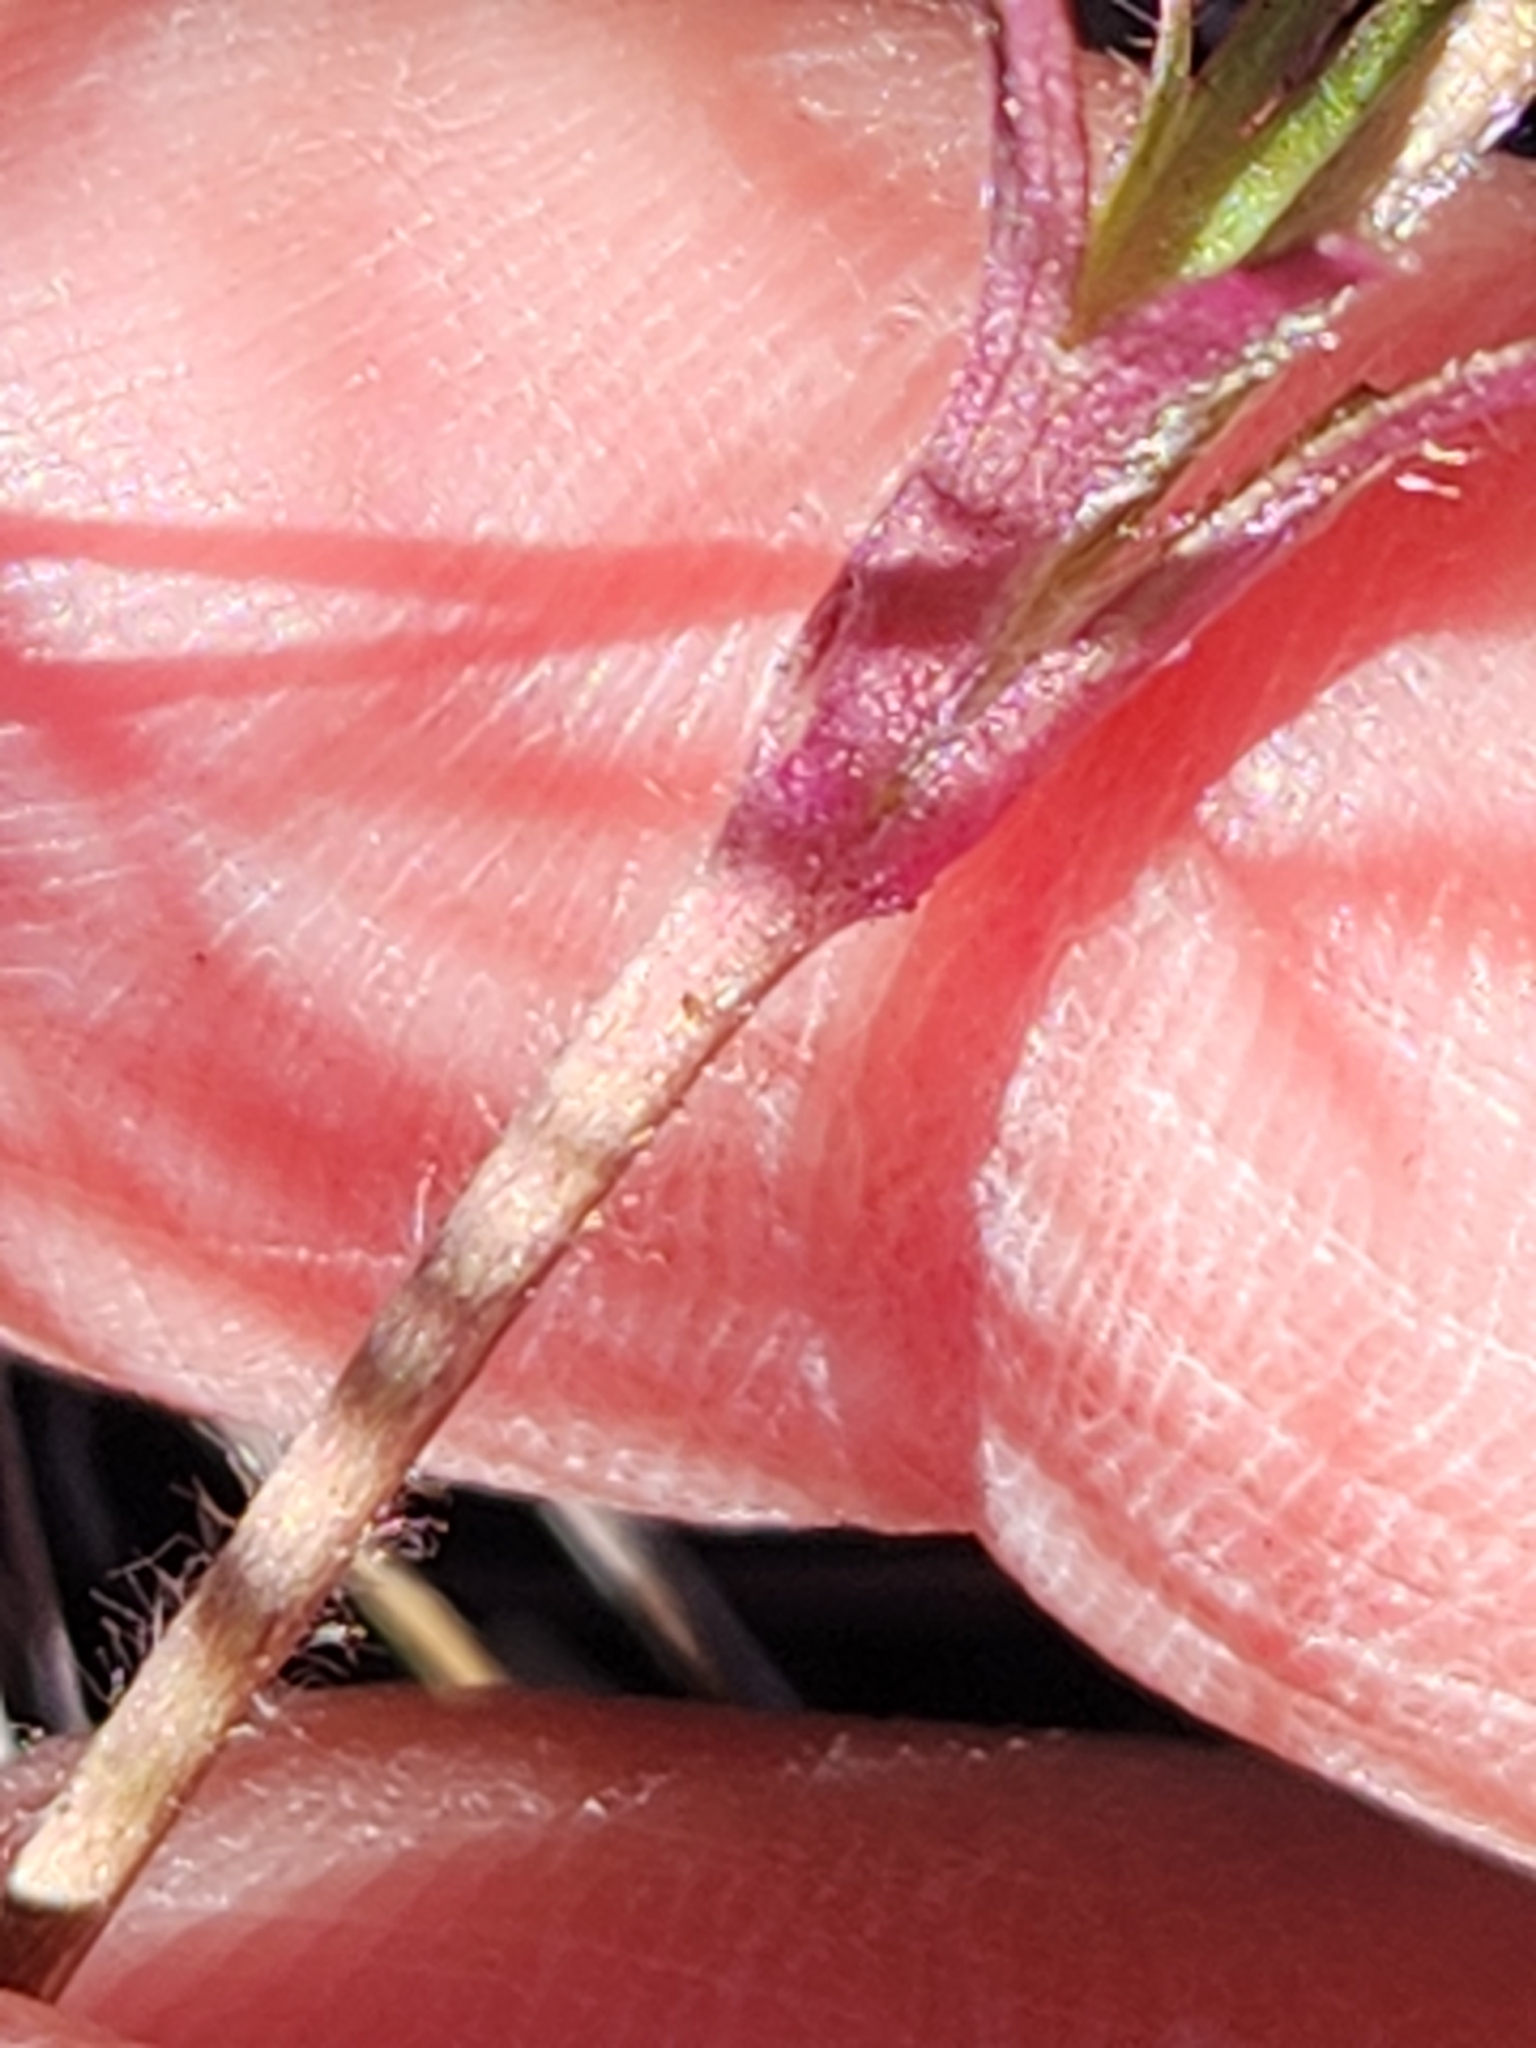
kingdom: Plantae
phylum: Tracheophyta
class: Magnoliopsida
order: Ranunculales
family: Ranunculaceae
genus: Anemone
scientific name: Anemone berlandieri
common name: Ten-petal anemone
